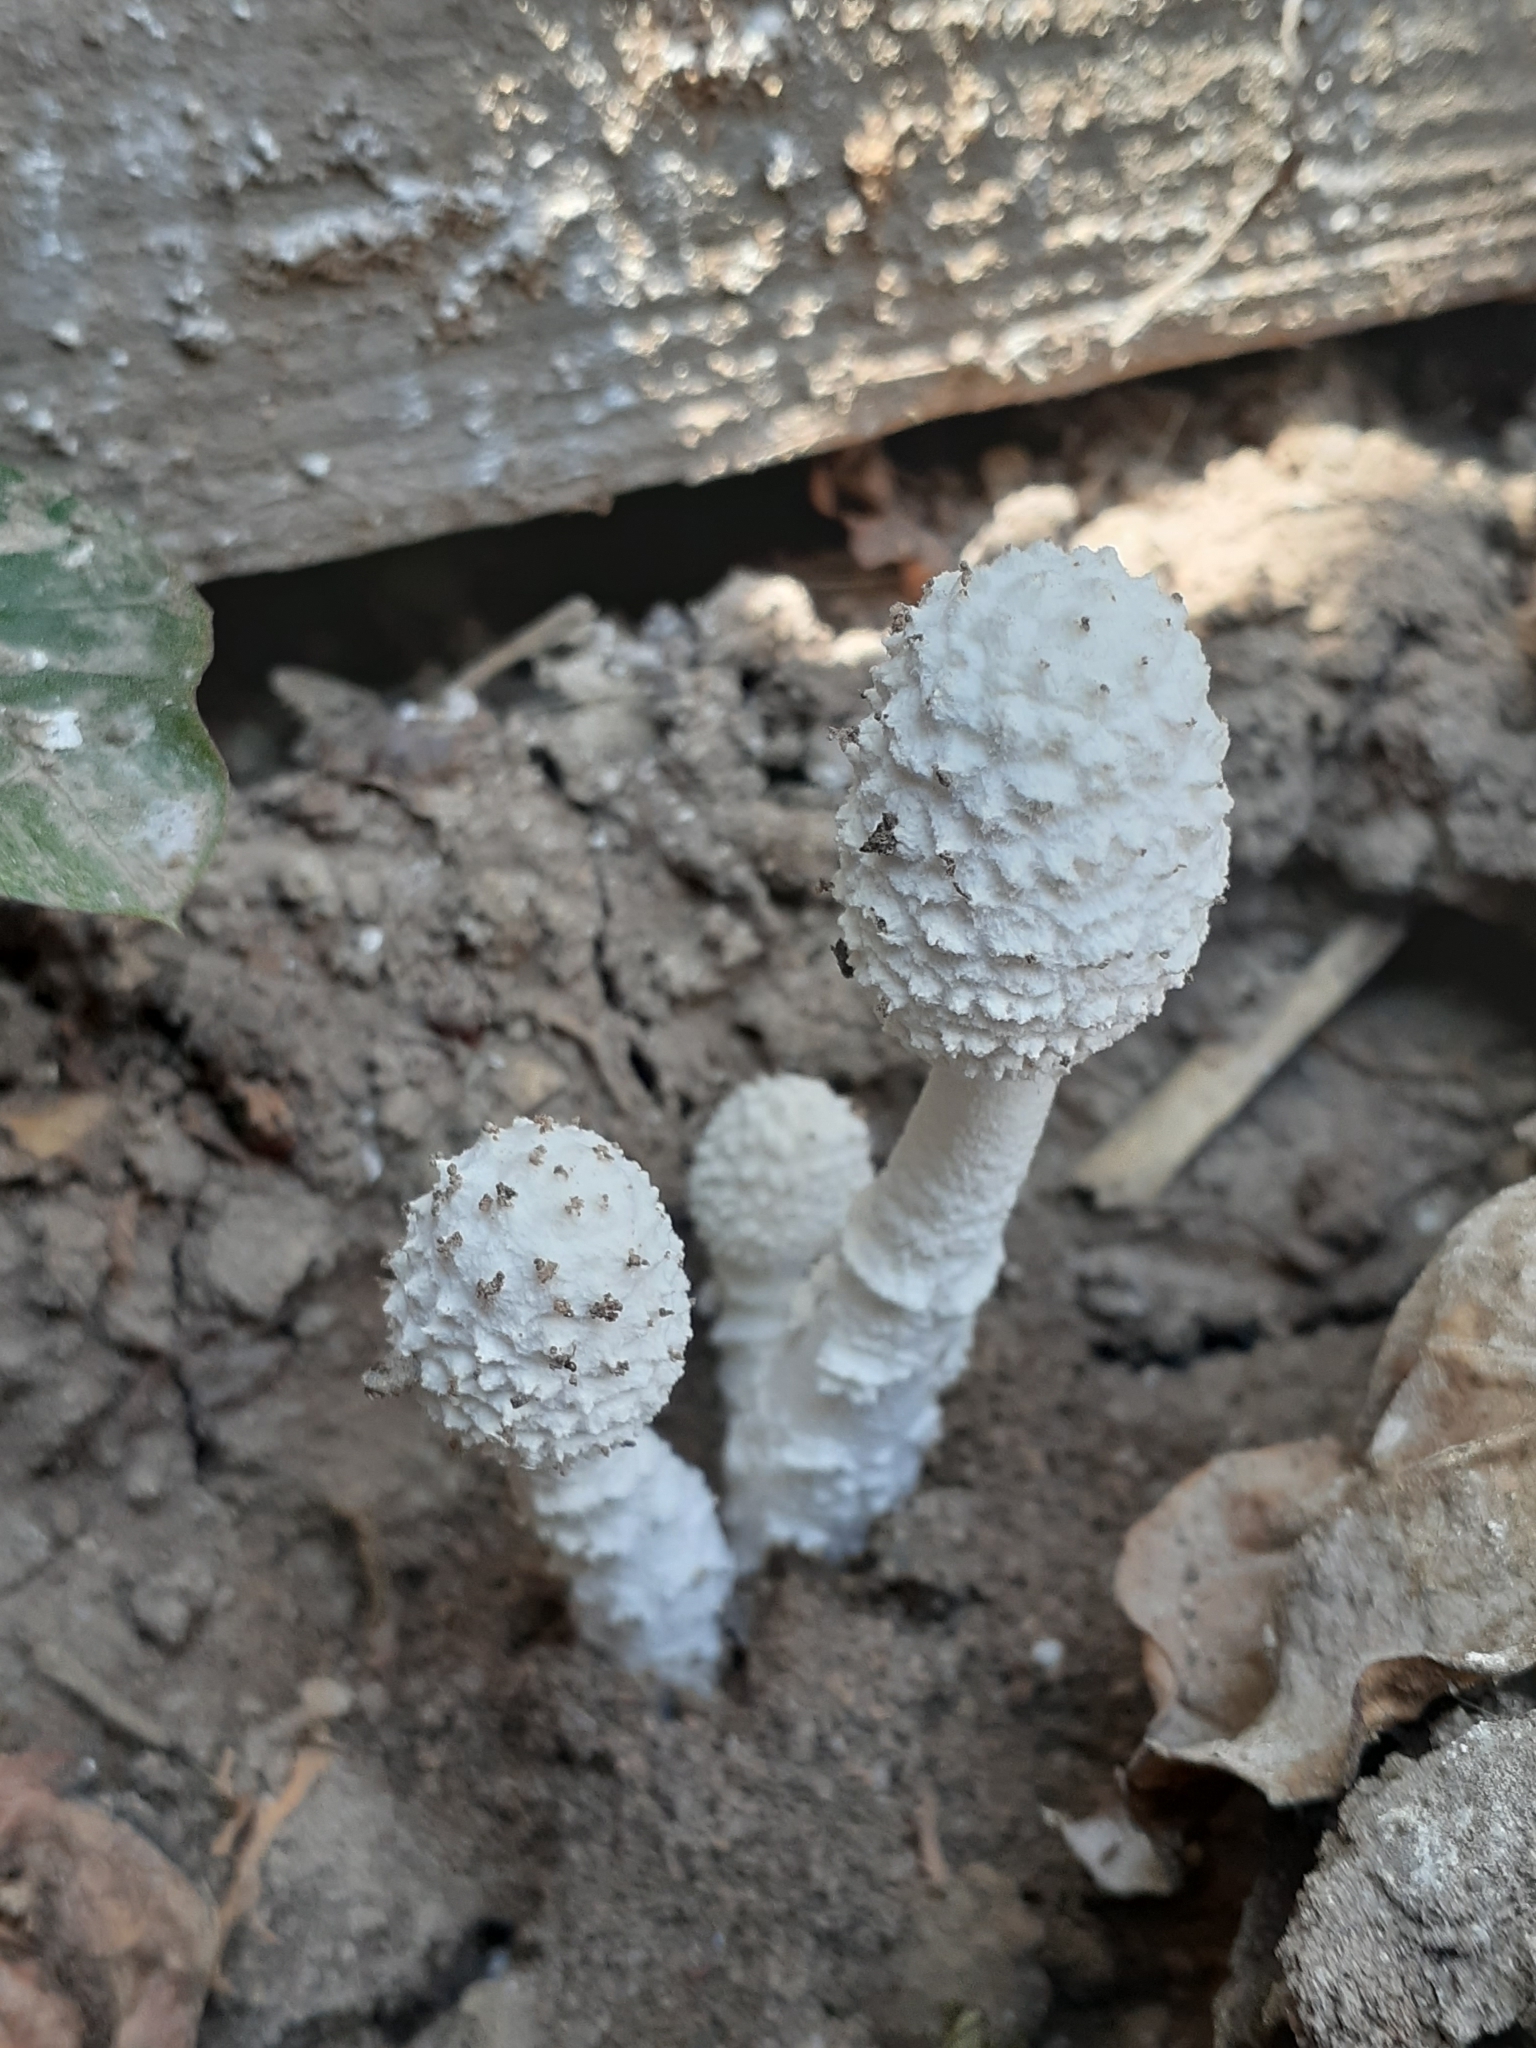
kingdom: Fungi
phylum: Basidiomycota
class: Agaricomycetes
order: Agaricales
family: Agaricaceae
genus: Leucocoprinus
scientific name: Leucocoprinus cretaceus
